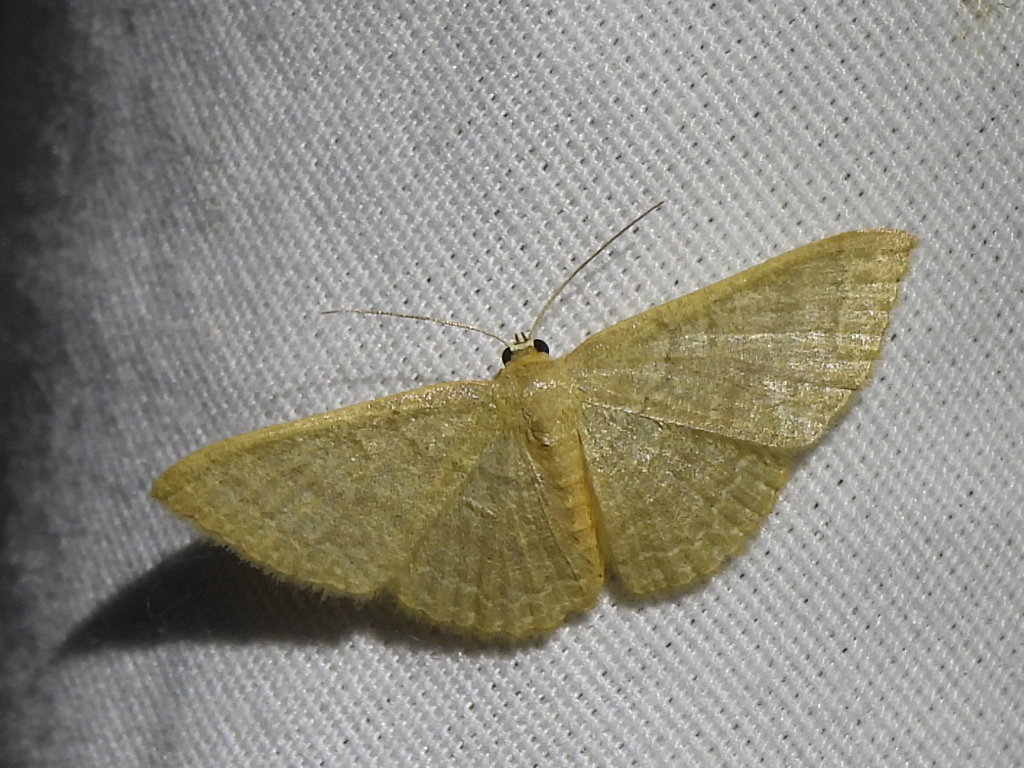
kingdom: Animalia
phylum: Arthropoda
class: Insecta
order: Lepidoptera
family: Geometridae
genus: Pleuroprucha
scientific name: Pleuroprucha insulsaria
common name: Common tan wave
